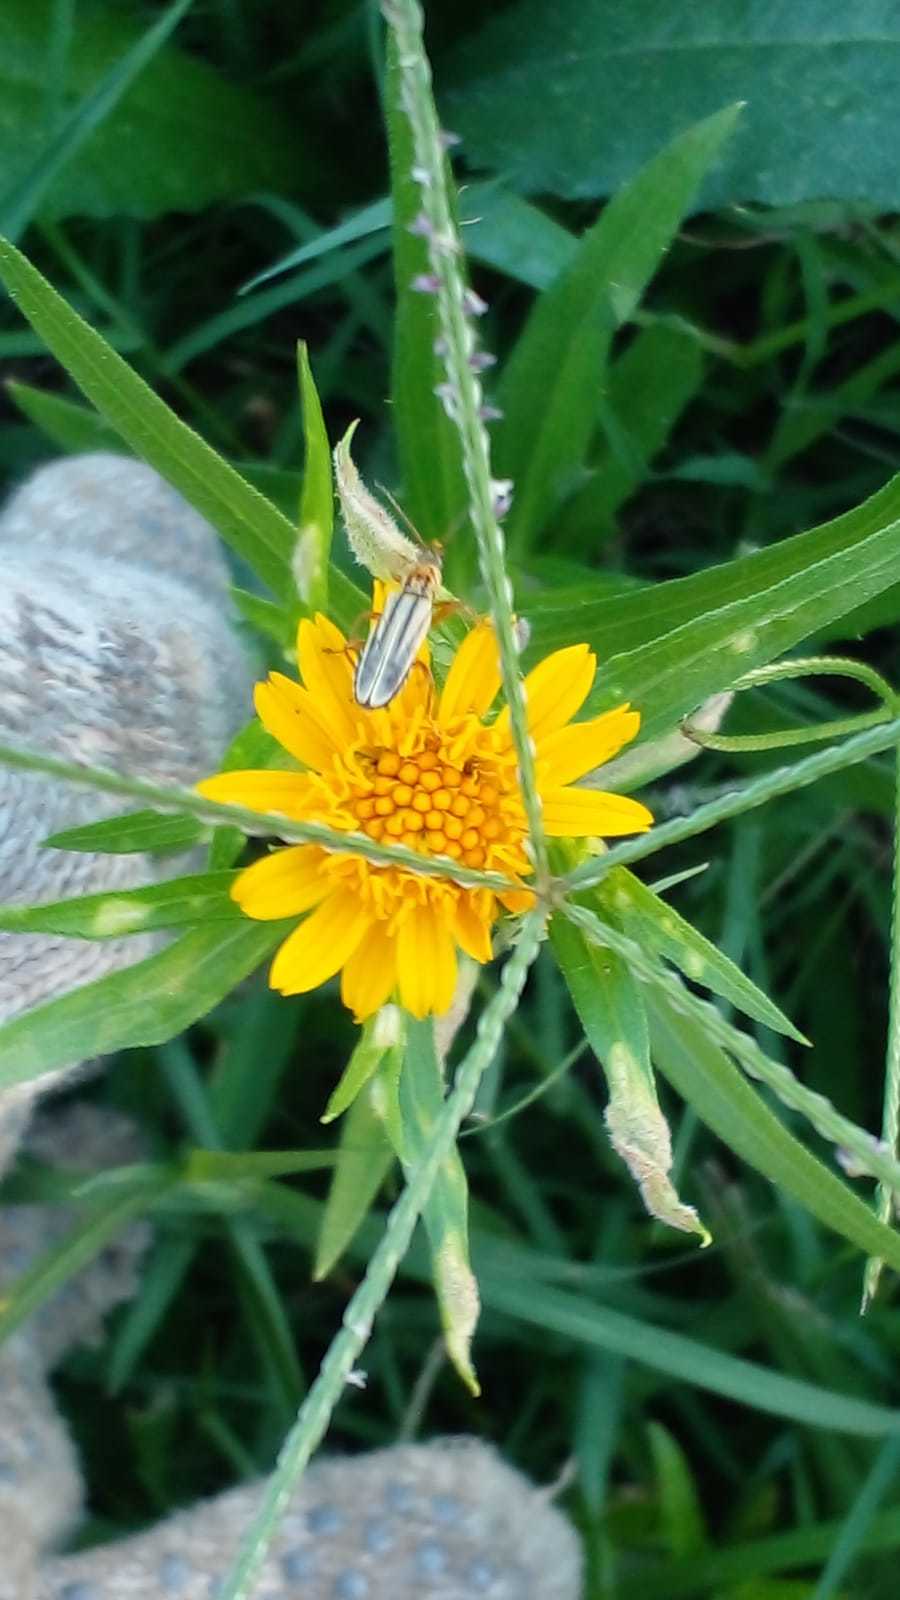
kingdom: Animalia
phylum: Arthropoda
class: Insecta
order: Coleoptera
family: Cantharidae
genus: Chauliognathus
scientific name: Chauliognathus
